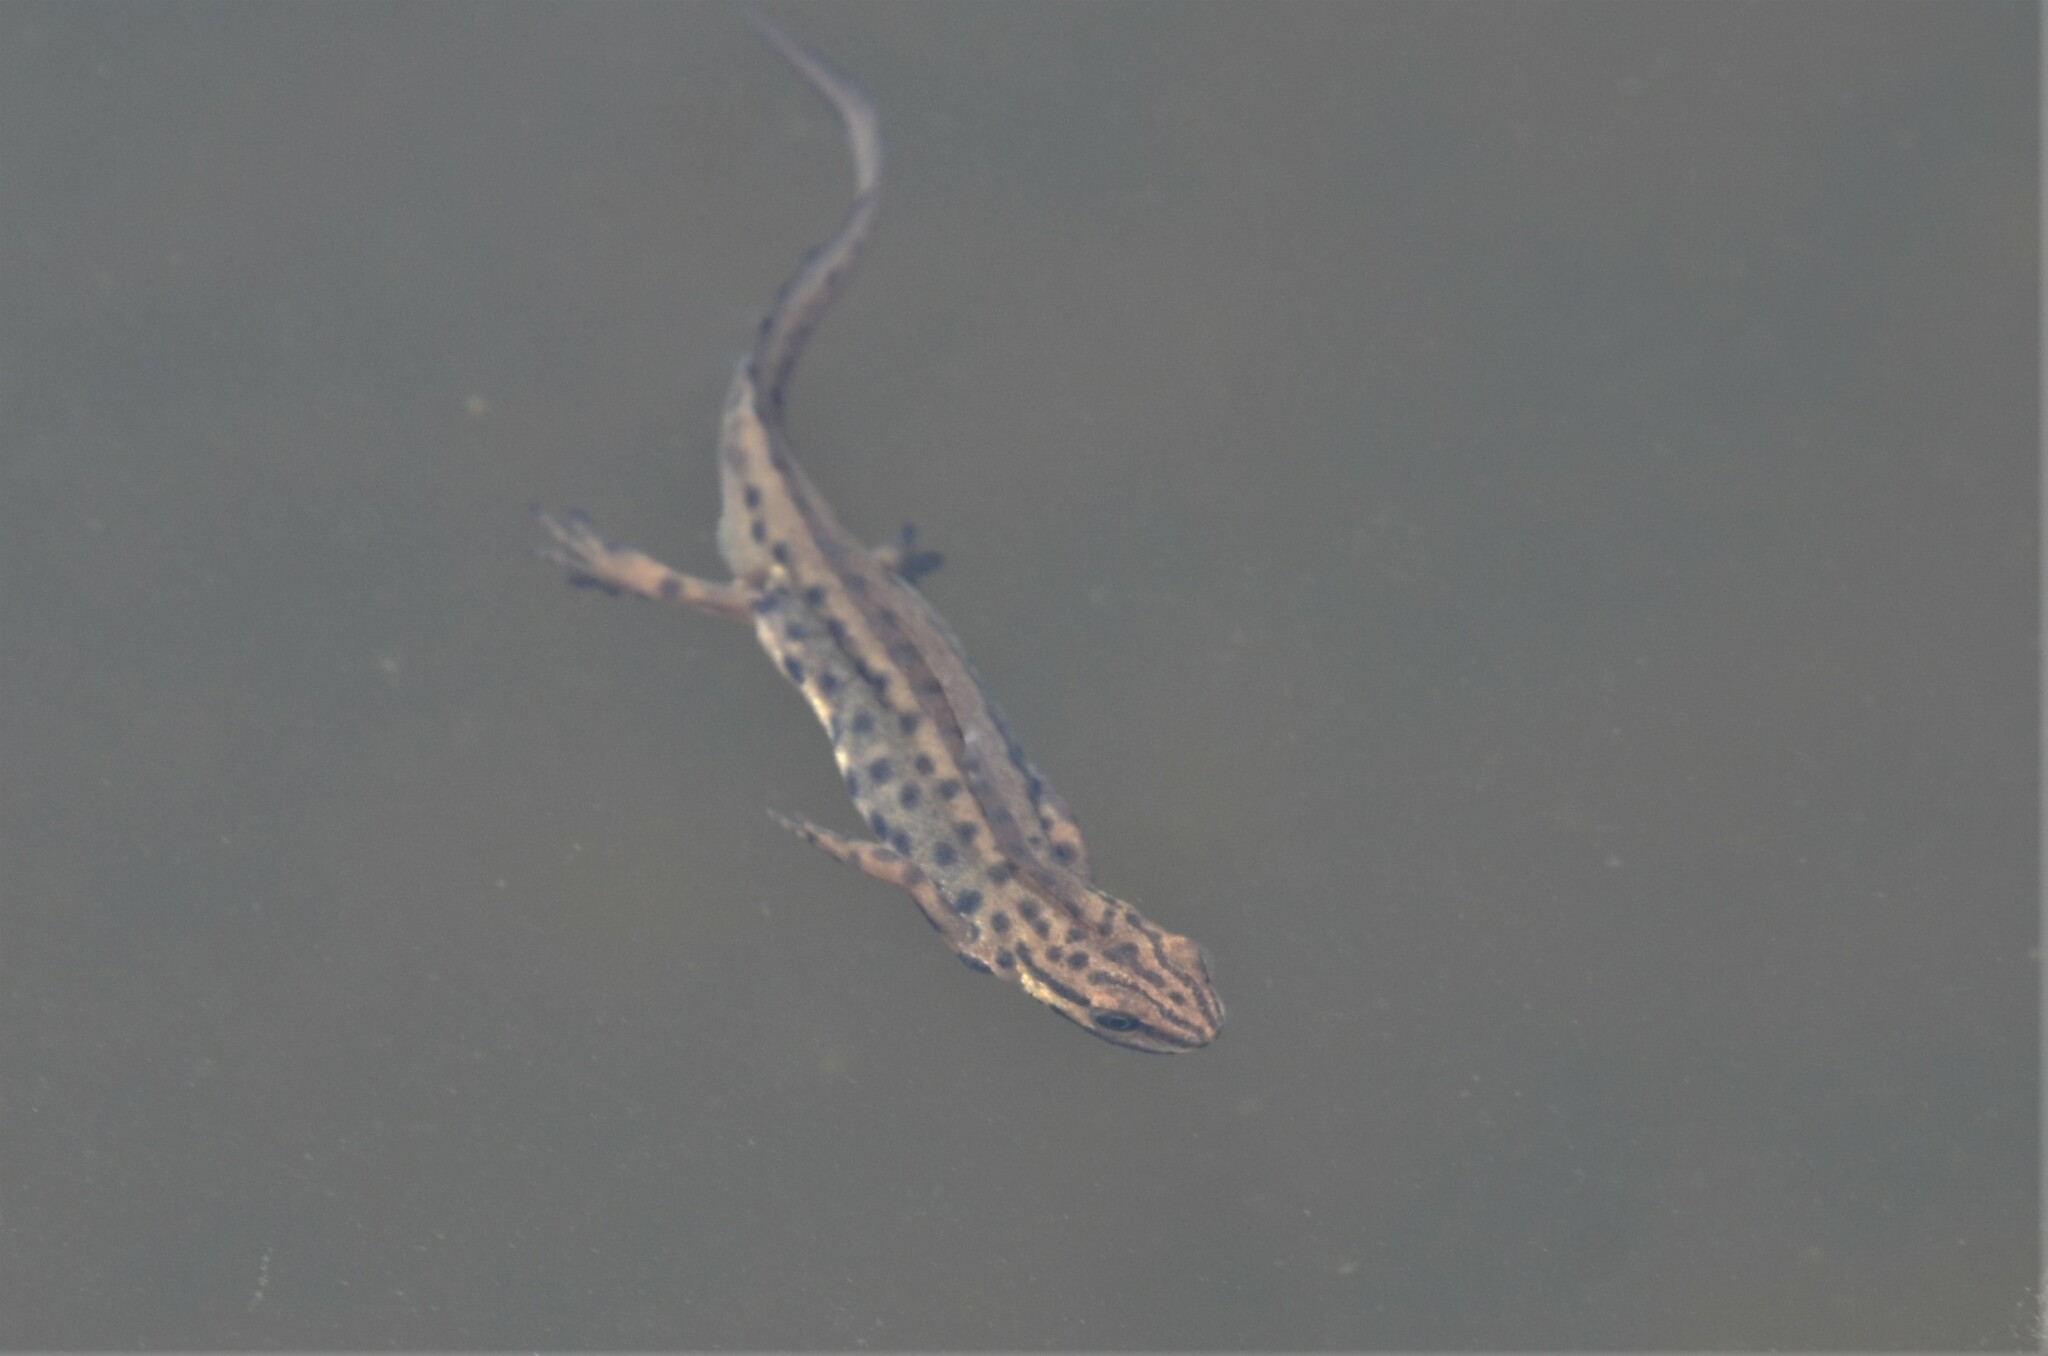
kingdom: Animalia
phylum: Chordata
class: Amphibia
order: Caudata
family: Salamandridae
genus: Lissotriton
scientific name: Lissotriton vulgaris
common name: Smooth newt
